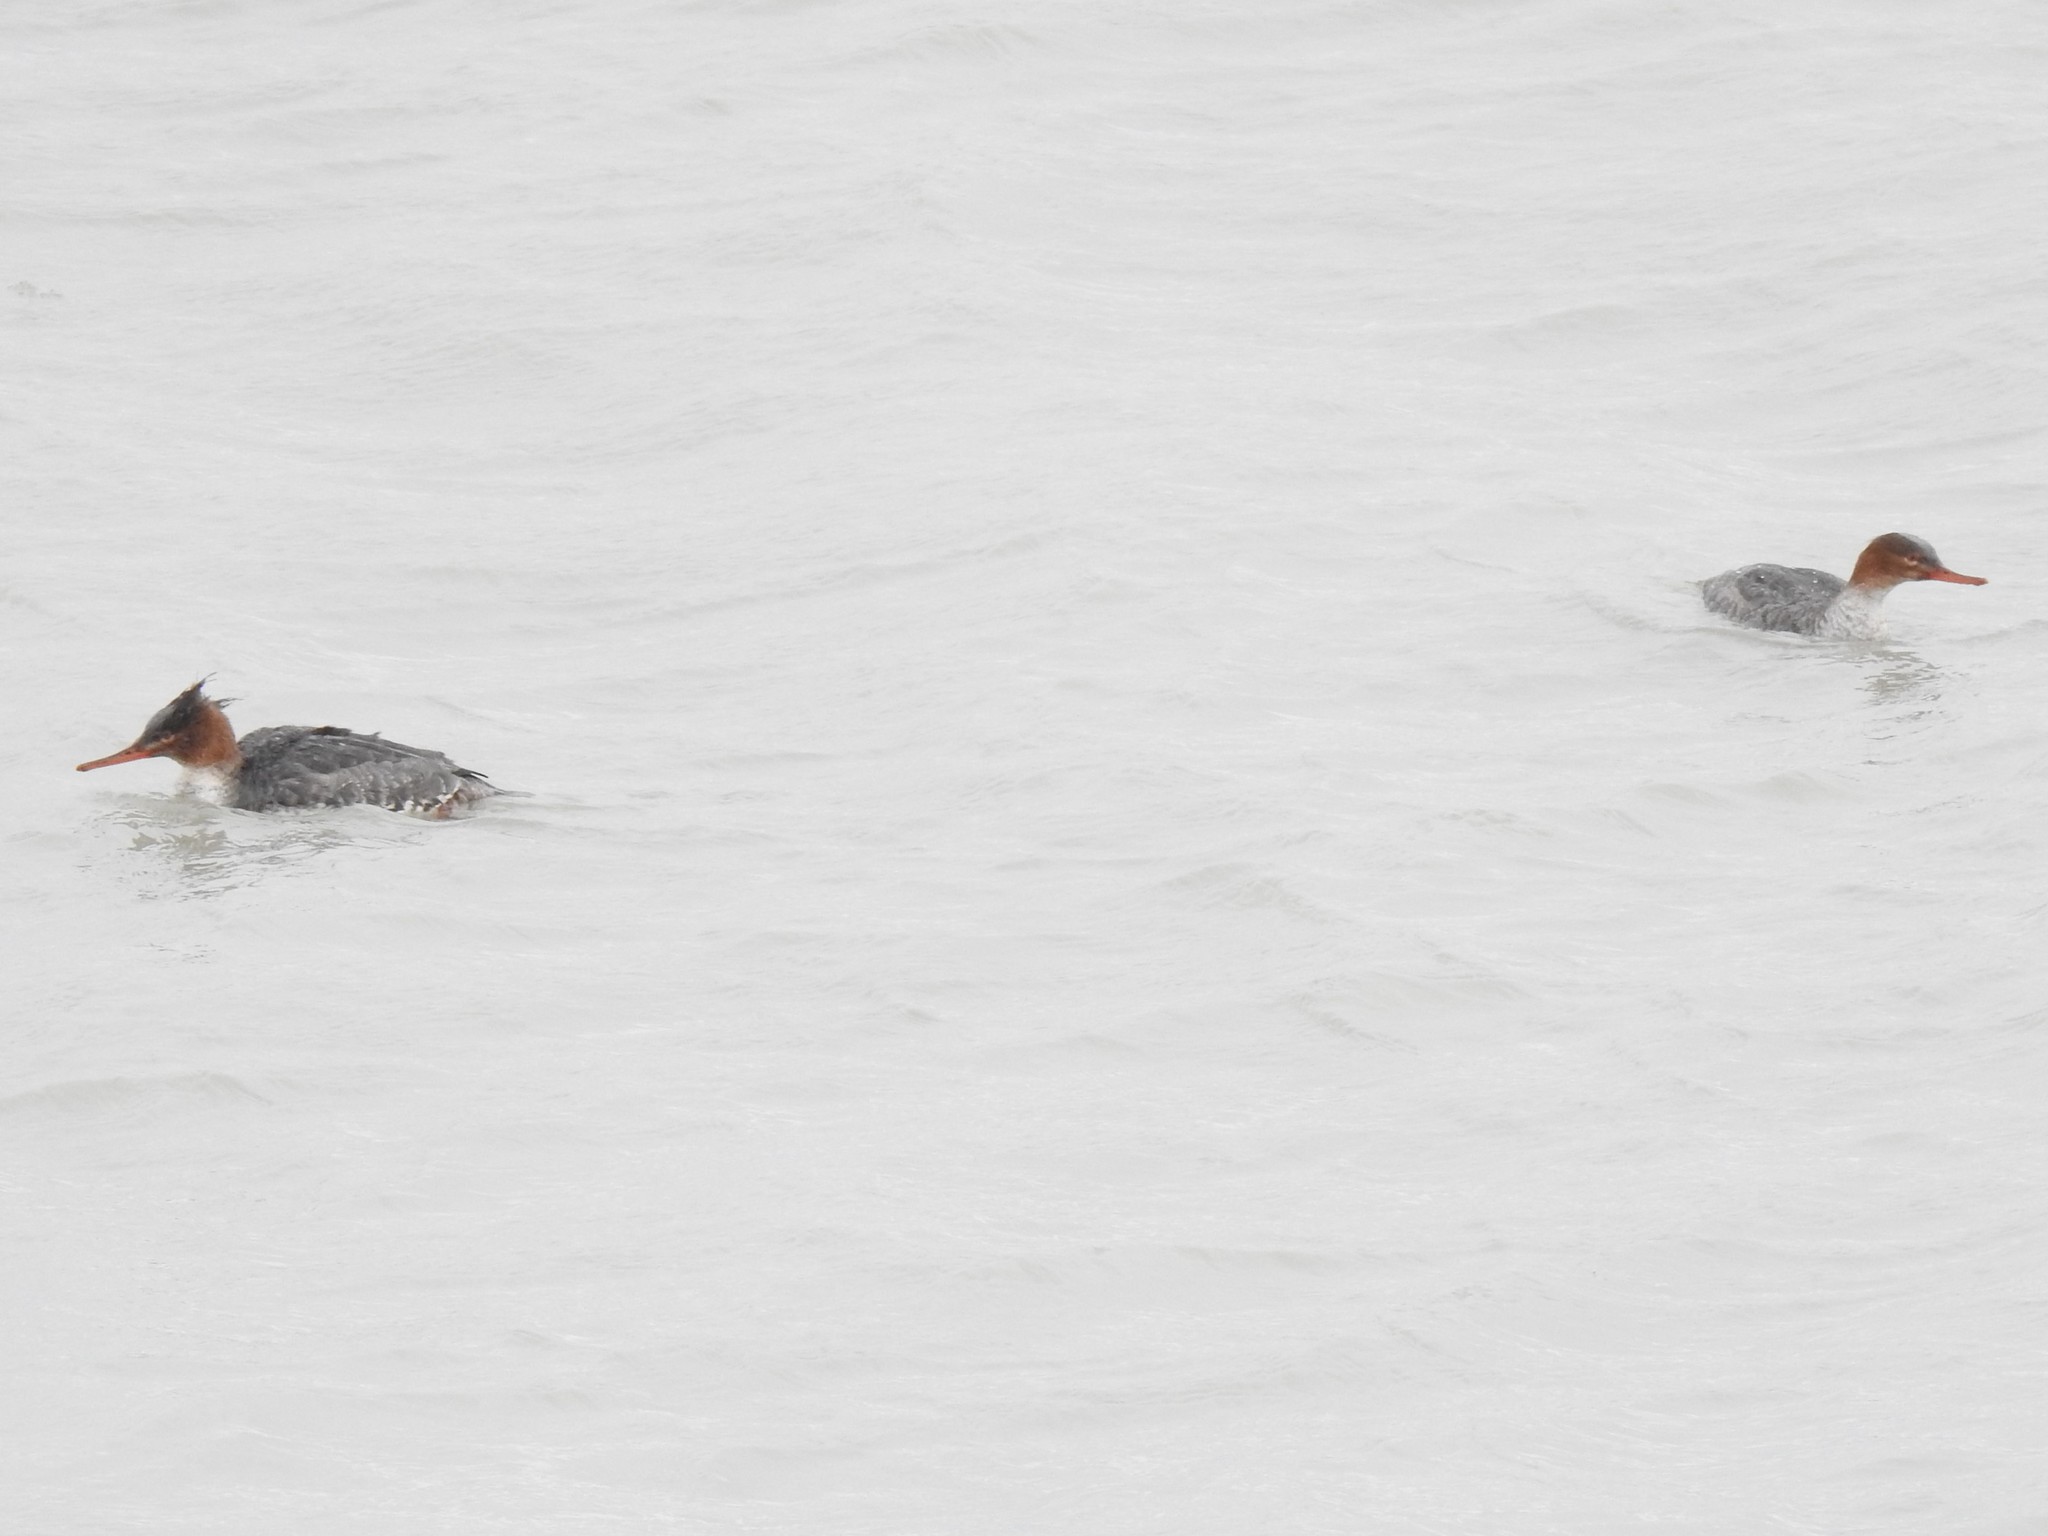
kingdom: Animalia
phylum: Chordata
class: Aves
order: Anseriformes
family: Anatidae
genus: Mergus
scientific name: Mergus serrator
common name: Red-breasted merganser
